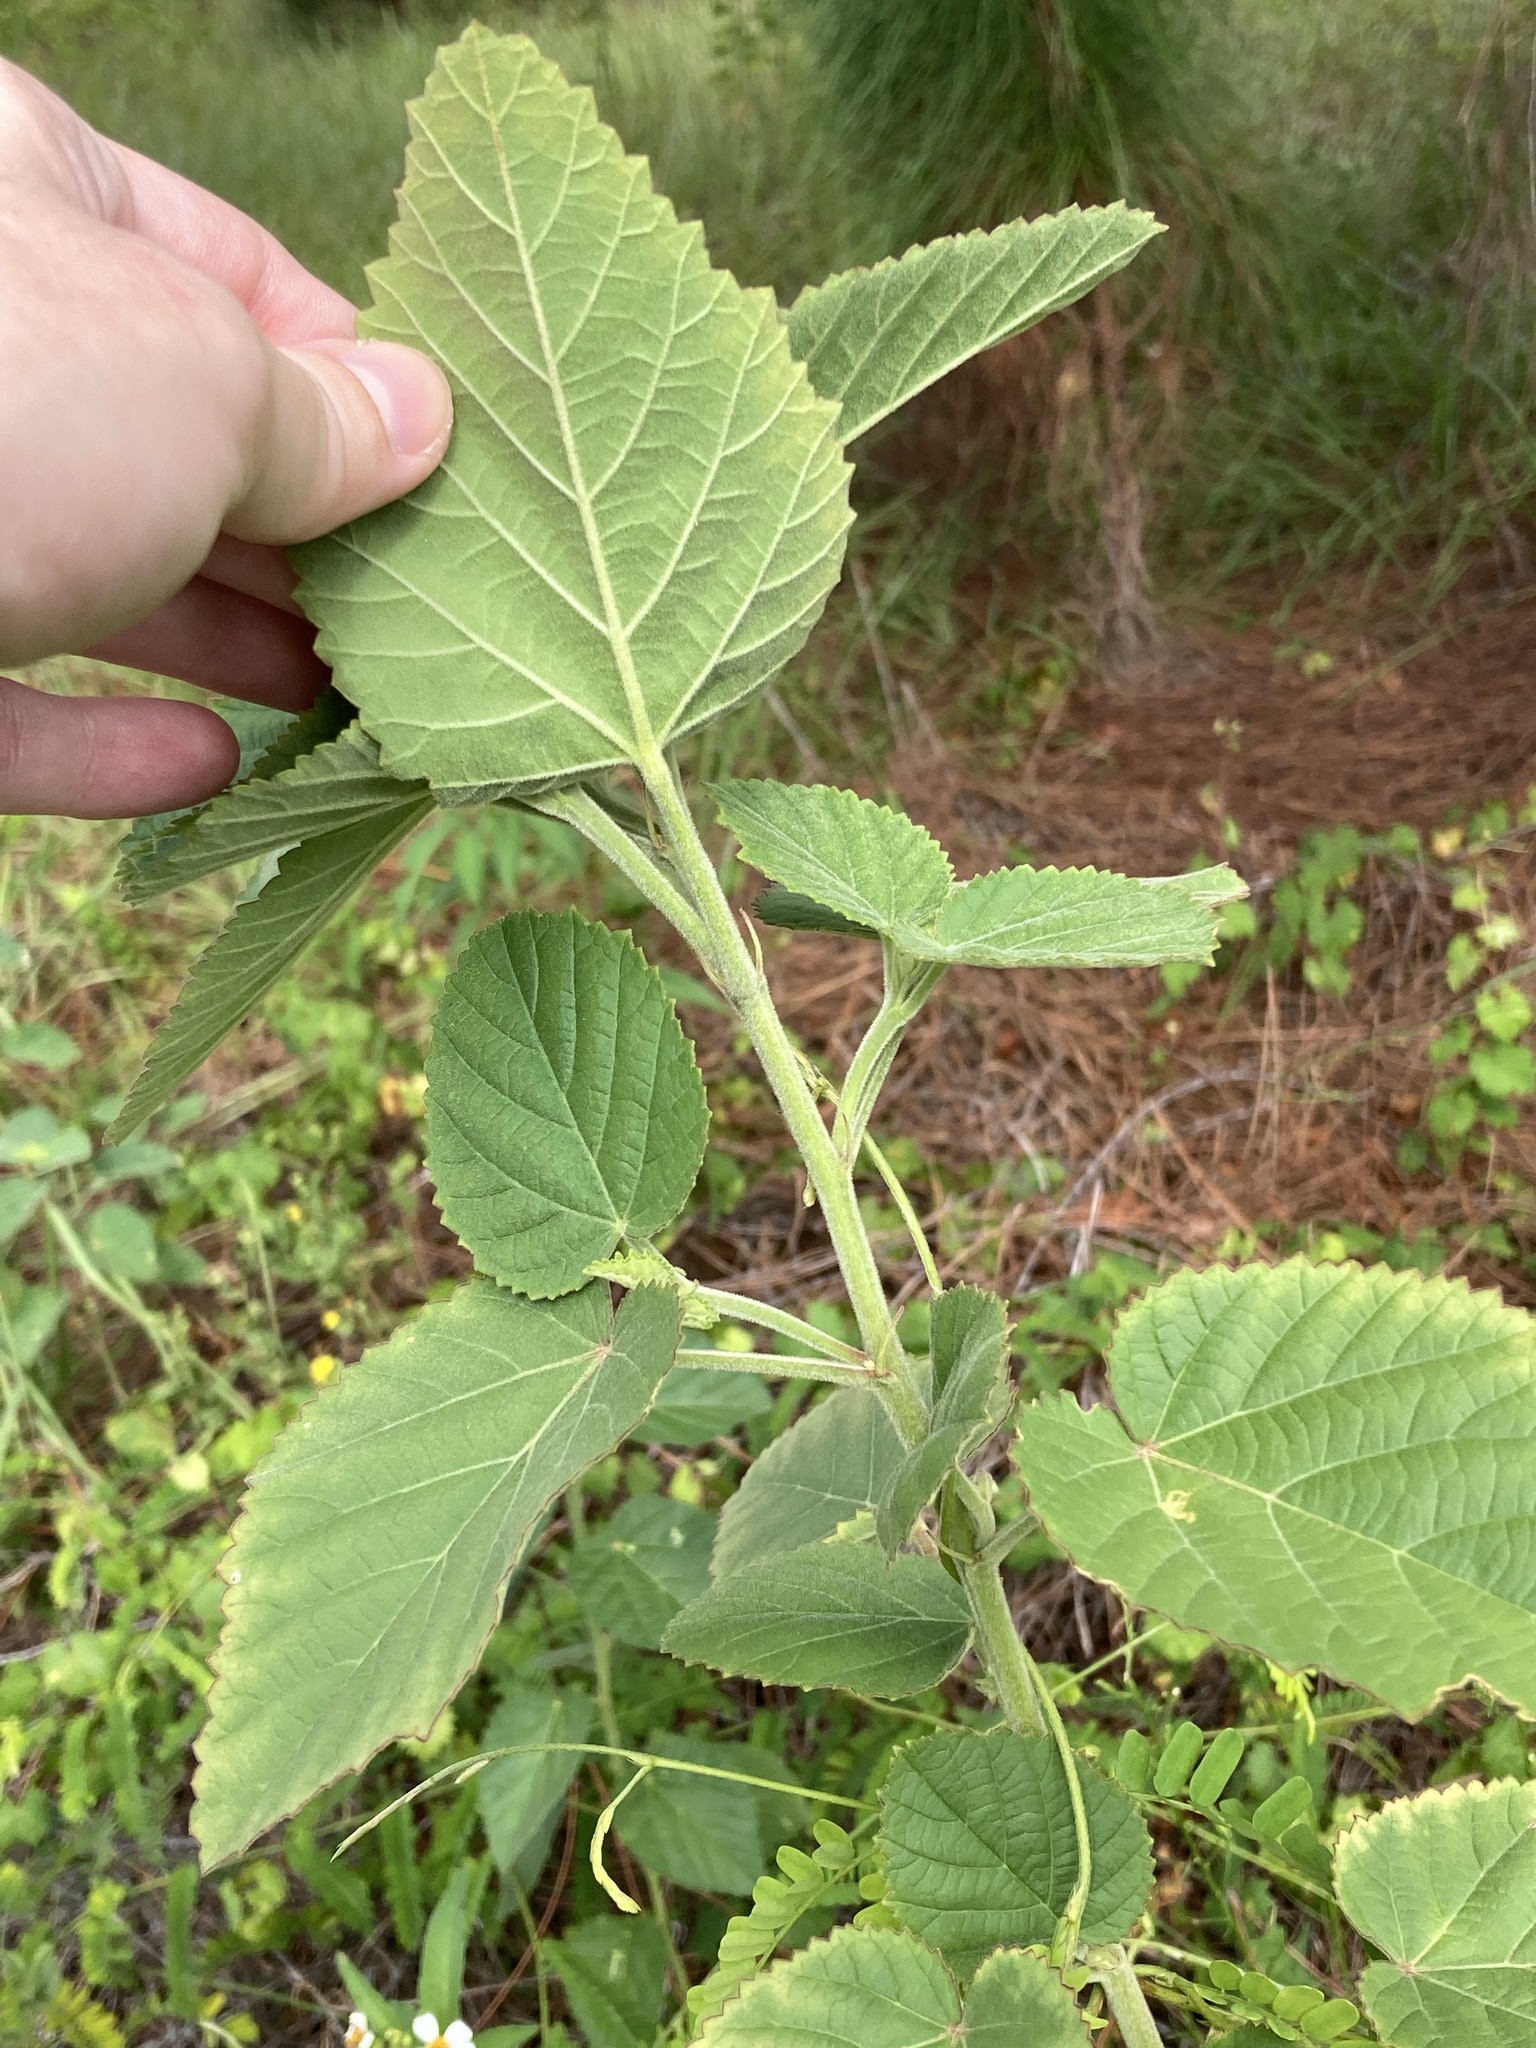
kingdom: Plantae
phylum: Tracheophyta
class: Magnoliopsida
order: Malvales
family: Malvaceae
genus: Sida
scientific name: Sida cordifolia
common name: Ilima
